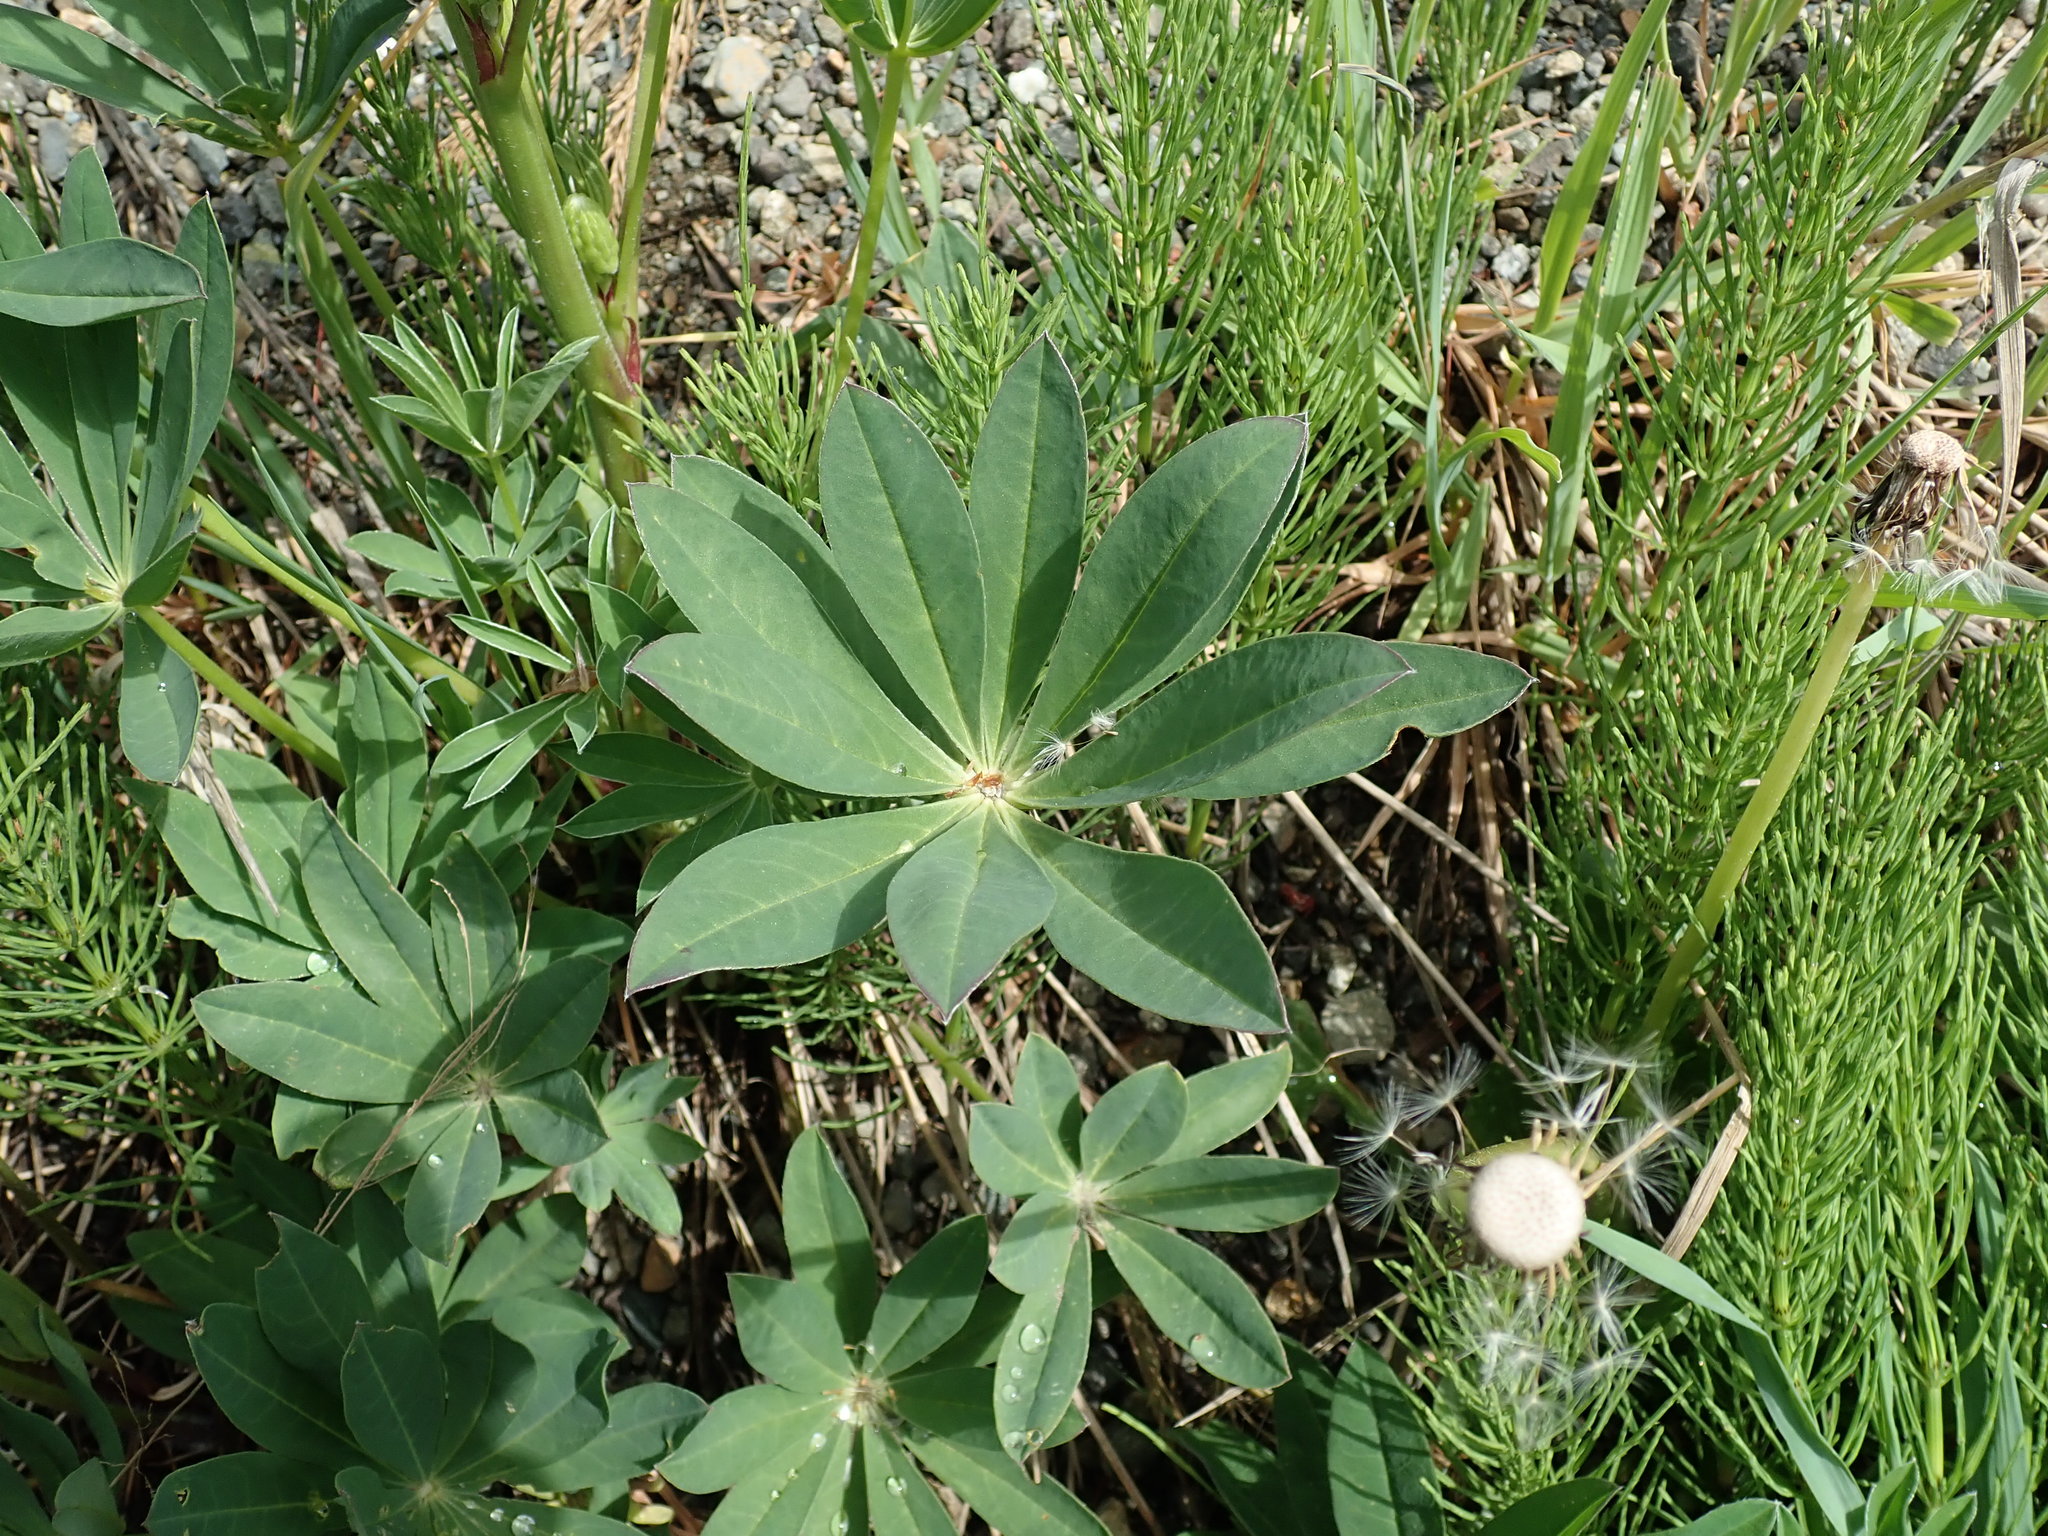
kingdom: Plantae
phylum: Tracheophyta
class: Magnoliopsida
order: Fabales
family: Fabaceae
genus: Lupinus
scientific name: Lupinus polyphyllus
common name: Garden lupin
